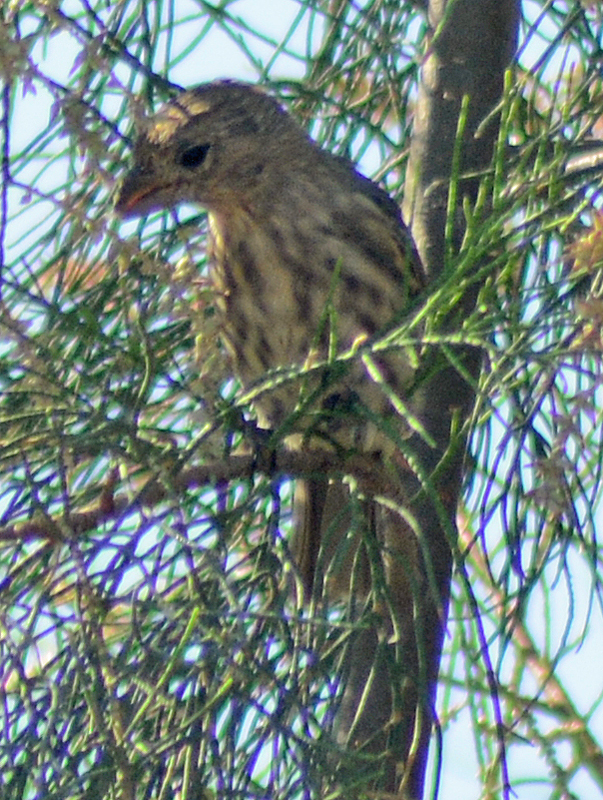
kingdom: Animalia
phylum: Chordata
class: Aves
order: Passeriformes
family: Fringillidae
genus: Haemorhous
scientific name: Haemorhous mexicanus
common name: House finch
